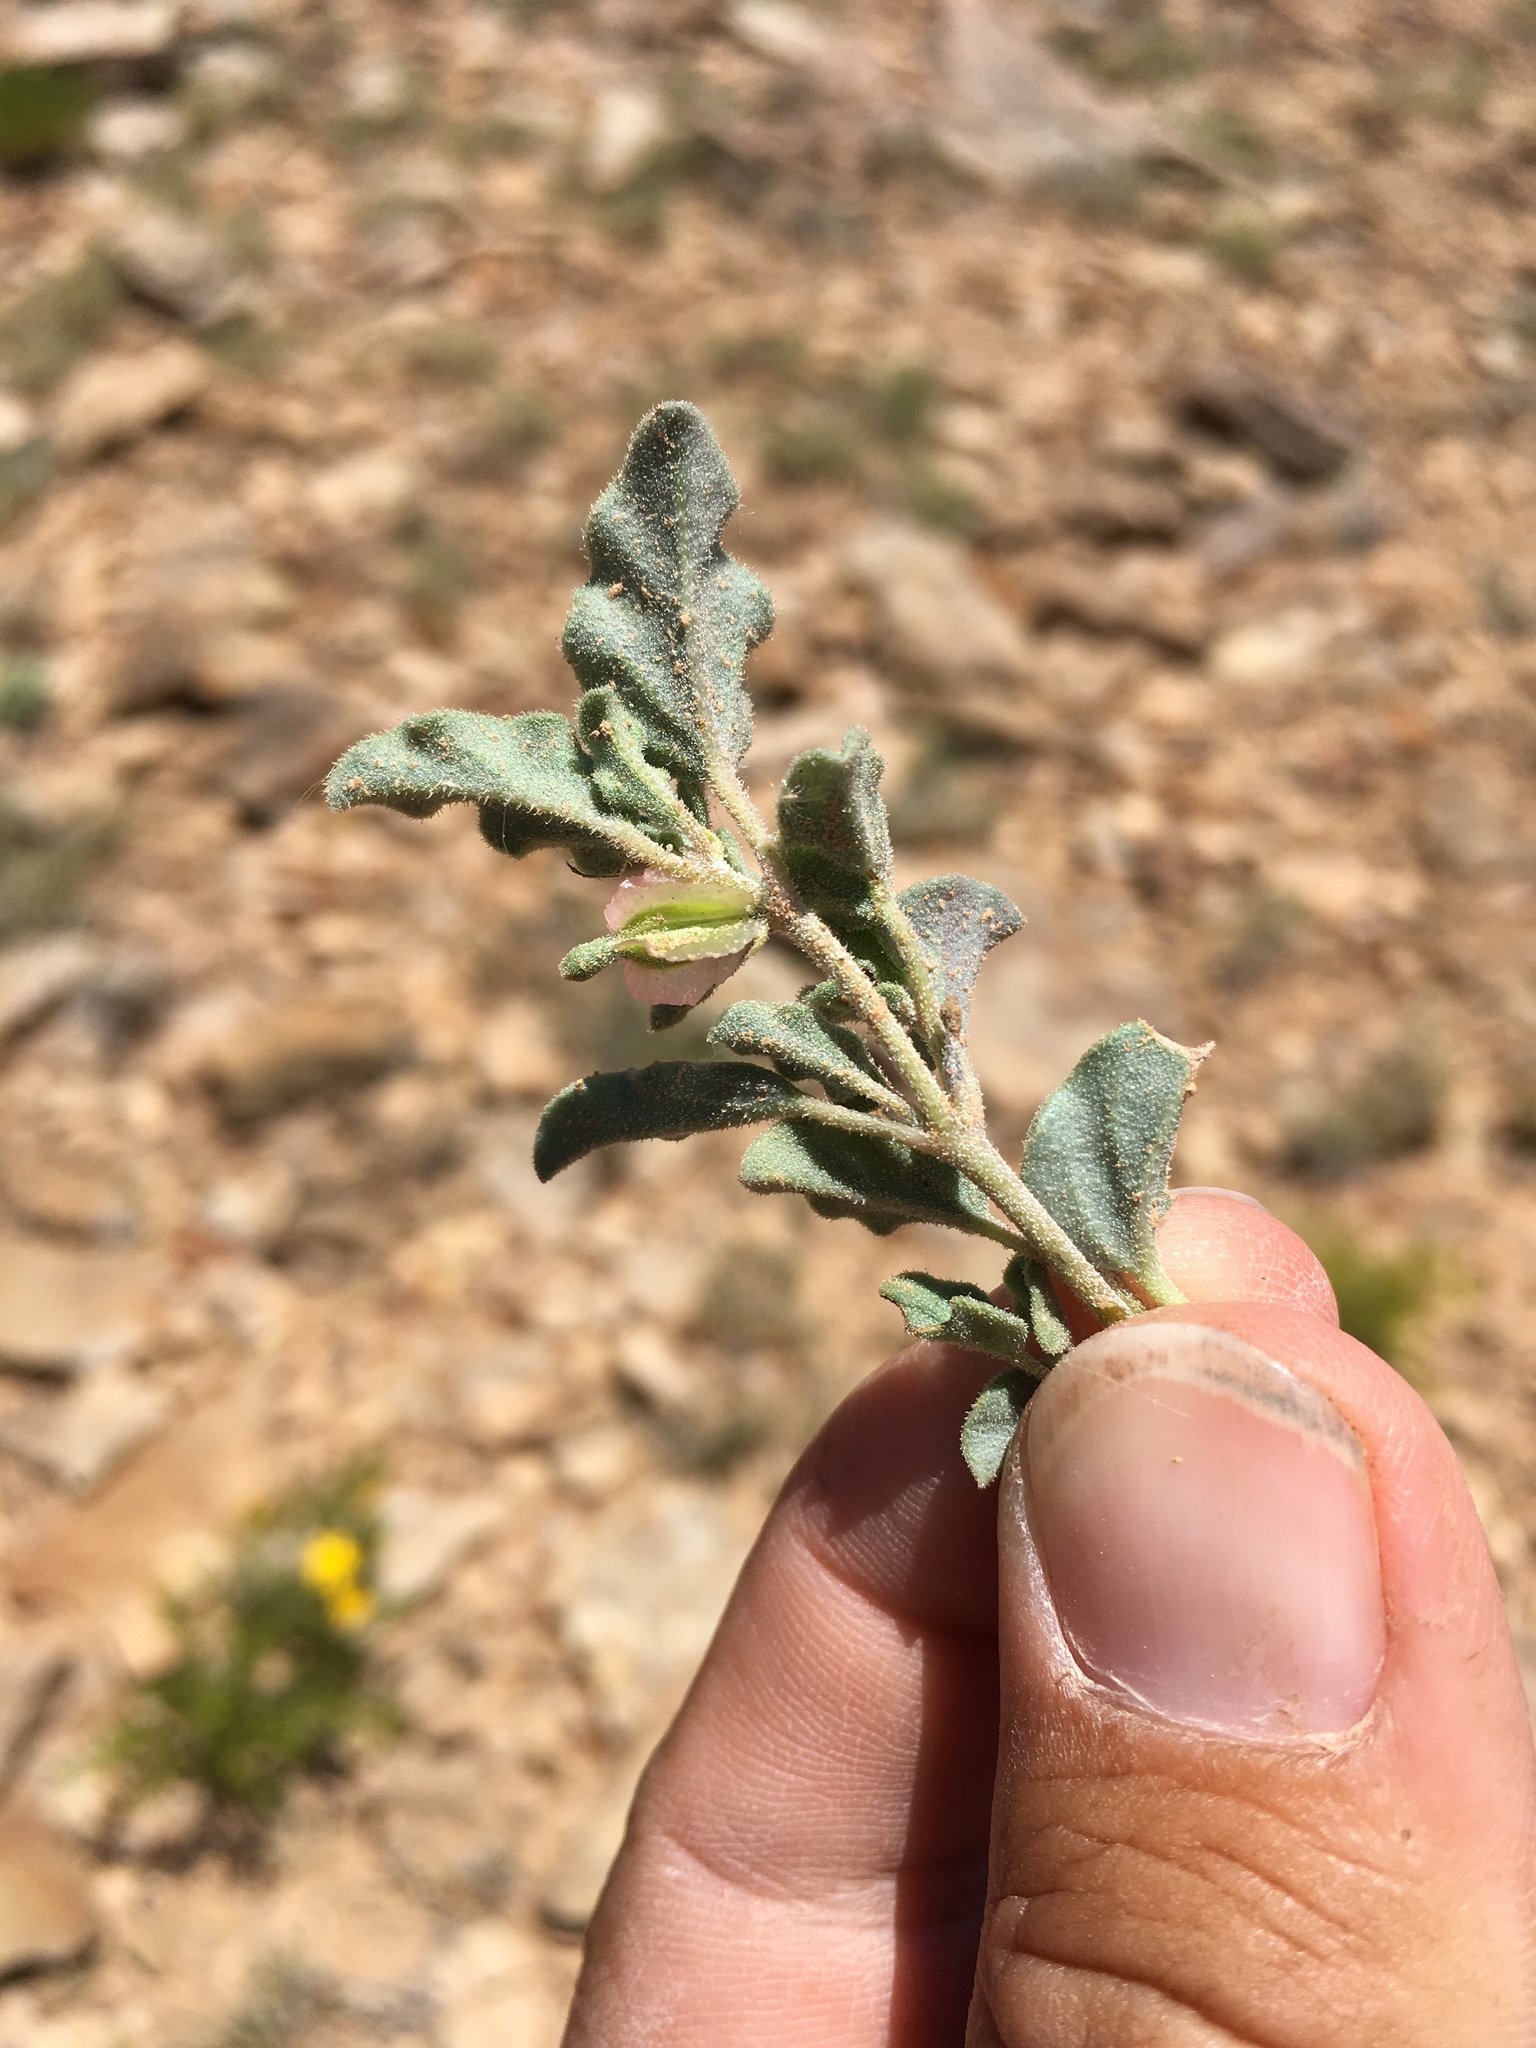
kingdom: Plantae
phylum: Tracheophyta
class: Magnoliopsida
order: Caryophyllales
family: Nyctaginaceae
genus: Acleisanthes
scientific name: Acleisanthes diffusa
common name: Spreading moonpod
